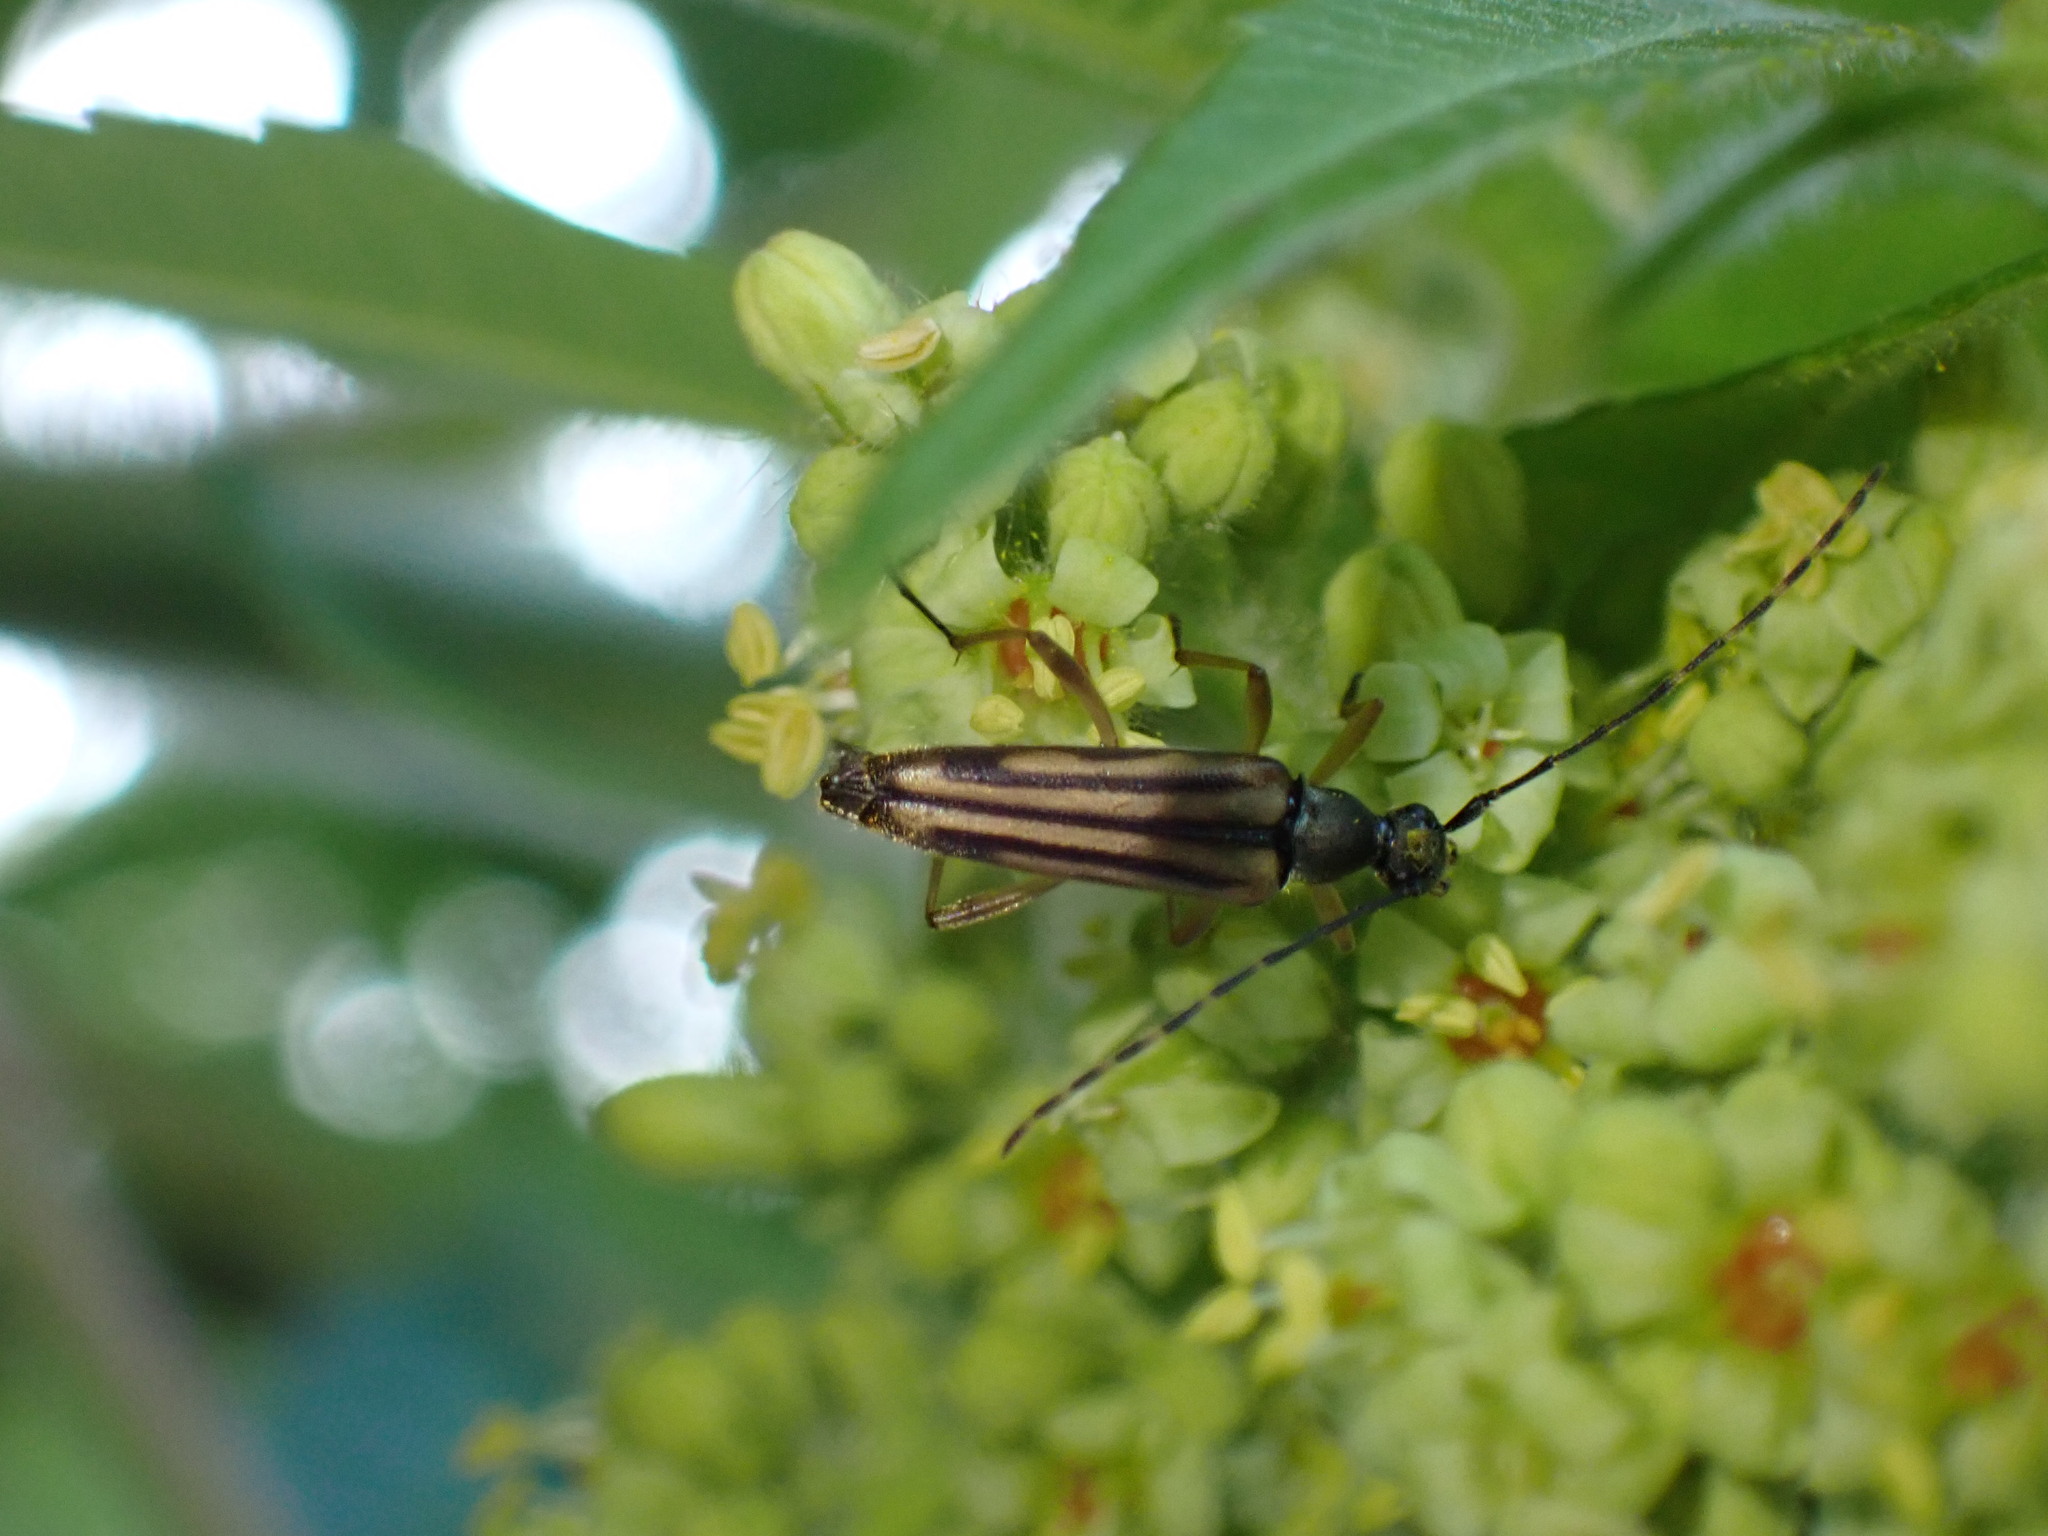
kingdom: Animalia
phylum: Arthropoda
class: Insecta
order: Coleoptera
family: Cerambycidae
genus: Analeptura
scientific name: Analeptura lineola
